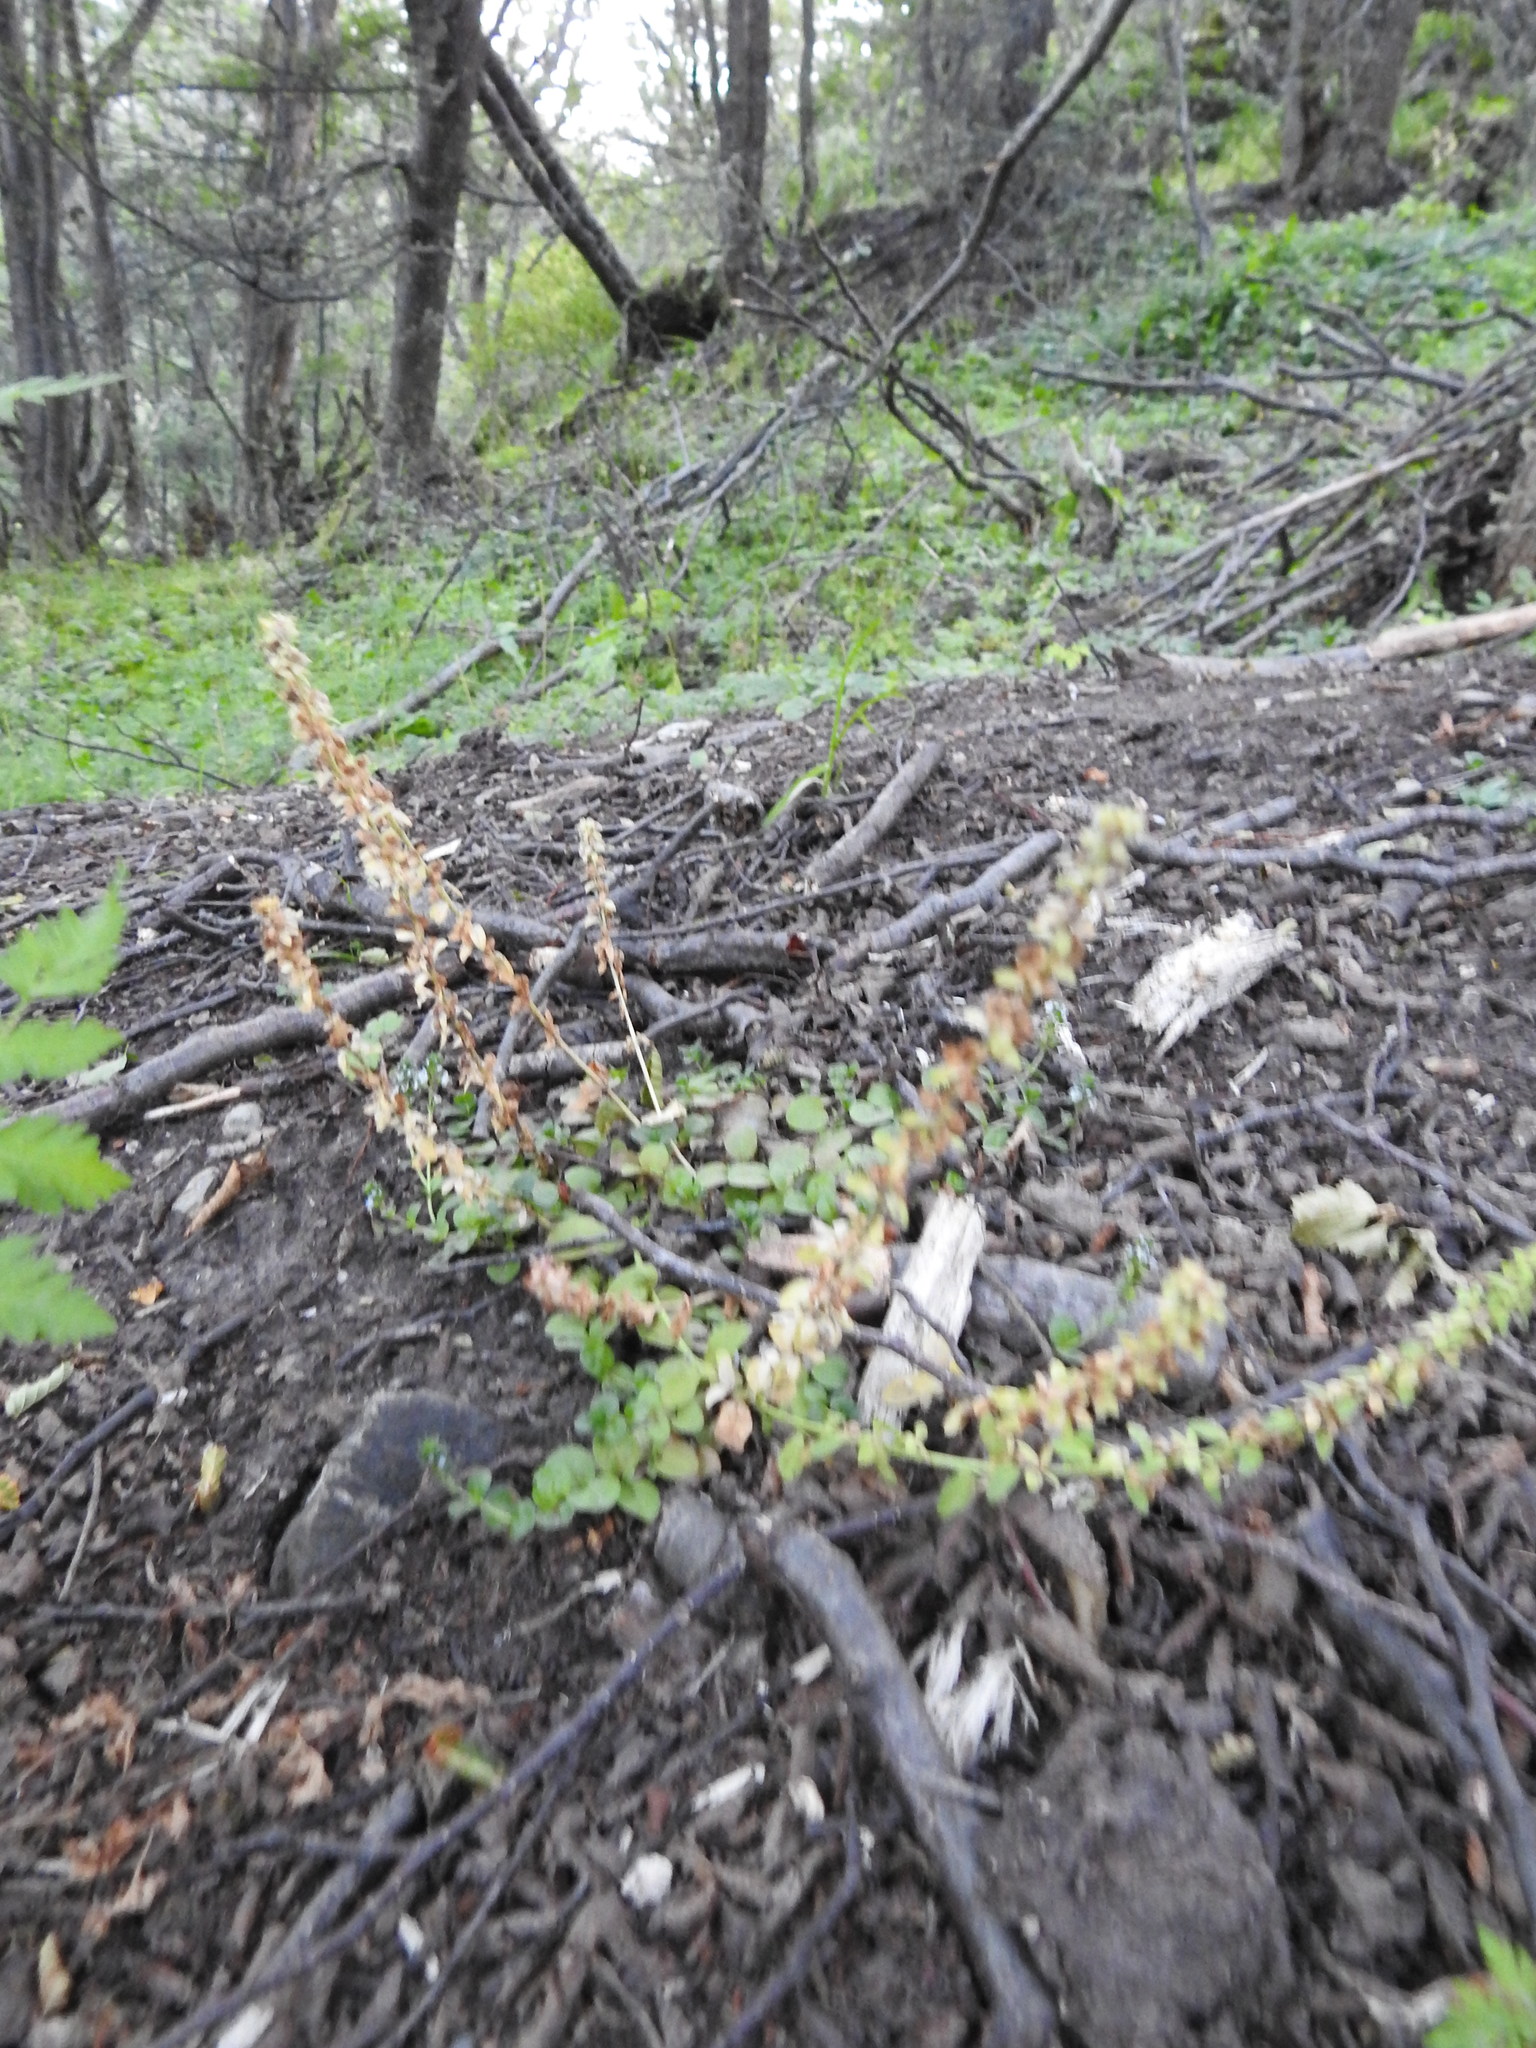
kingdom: Plantae
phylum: Tracheophyta
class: Magnoliopsida
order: Lamiales
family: Plantaginaceae
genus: Veronica
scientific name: Veronica serpyllifolia
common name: Thyme-leaved speedwell
